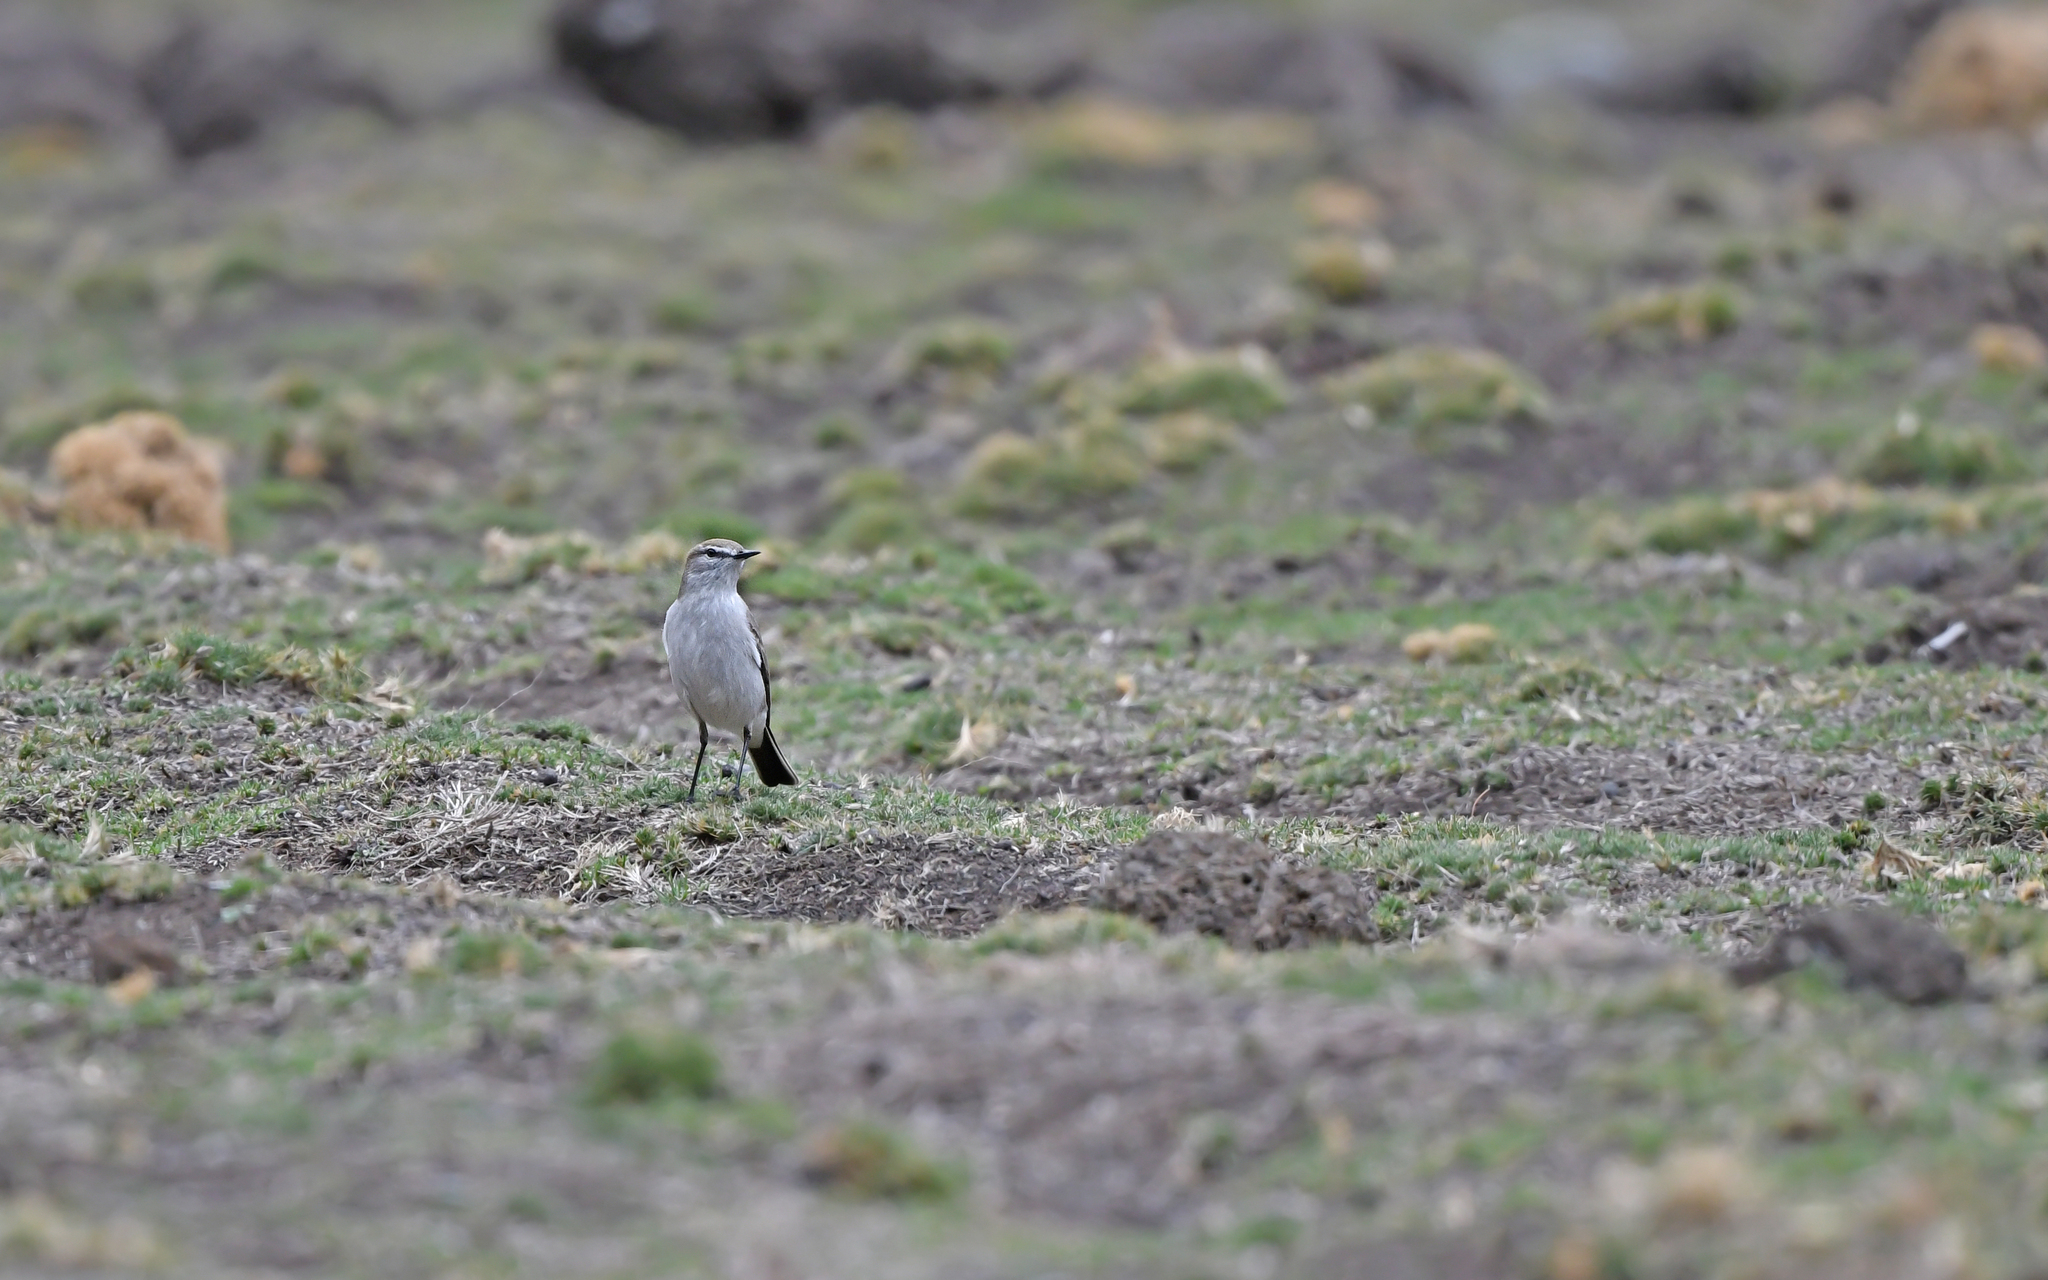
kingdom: Animalia
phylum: Chordata
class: Aves
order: Passeriformes
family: Tyrannidae
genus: Muscisaxicola
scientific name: Muscisaxicola juninensis
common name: Puna ground tyrant
